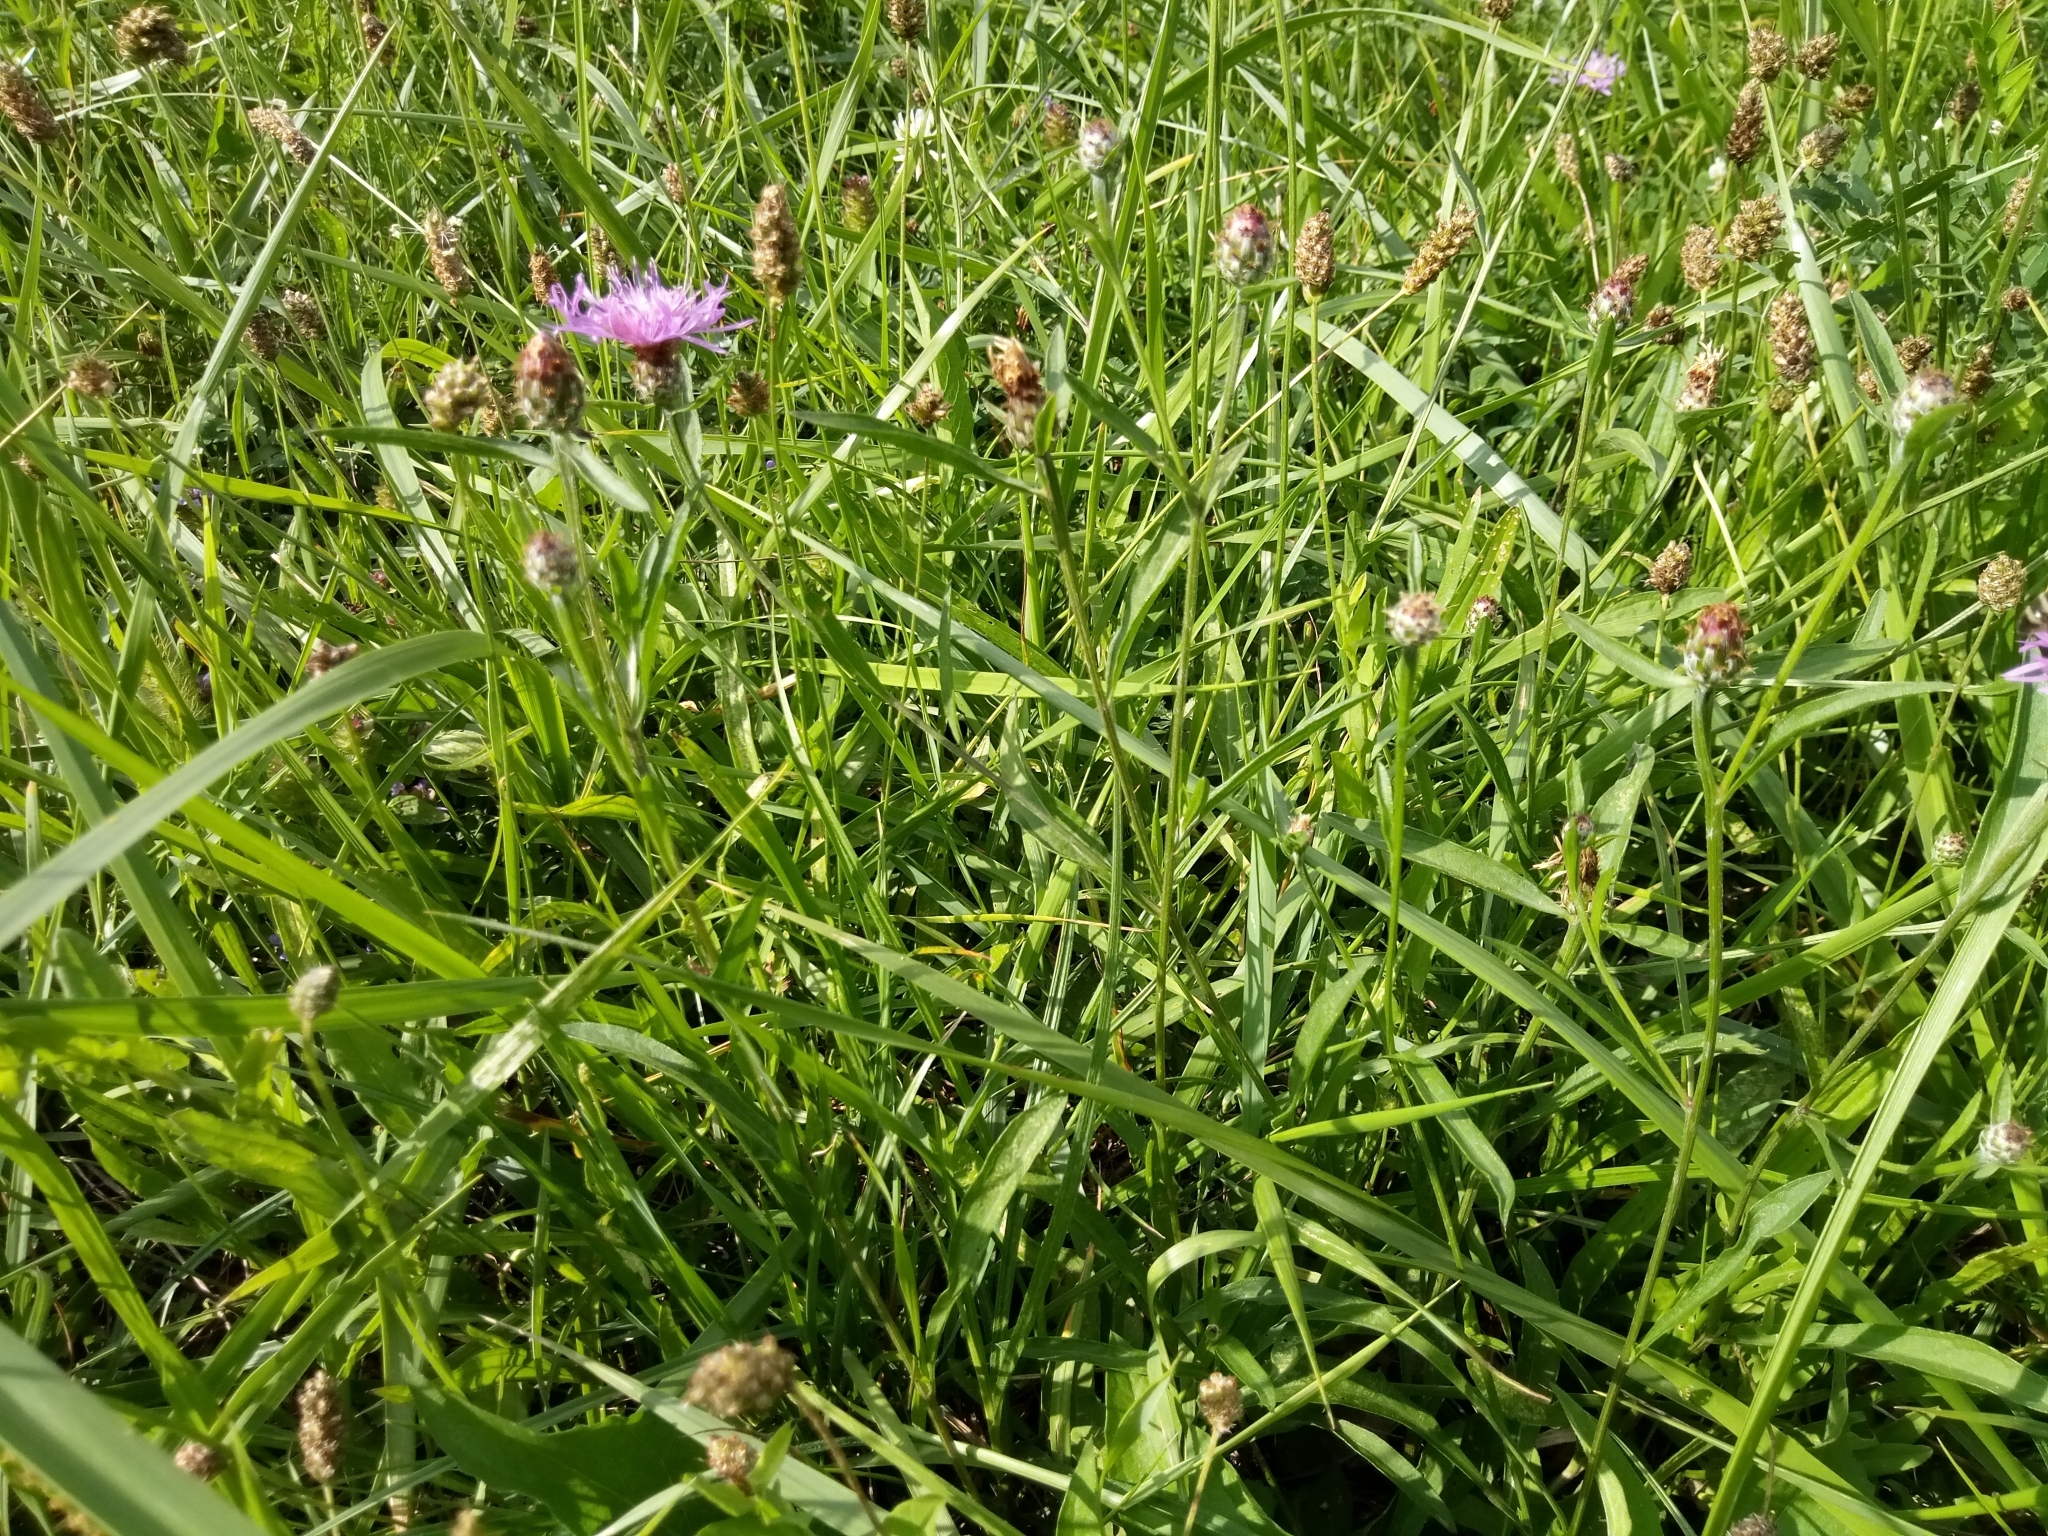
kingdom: Plantae
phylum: Tracheophyta
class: Magnoliopsida
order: Asterales
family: Asteraceae
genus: Centaurea
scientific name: Centaurea fleischeri
